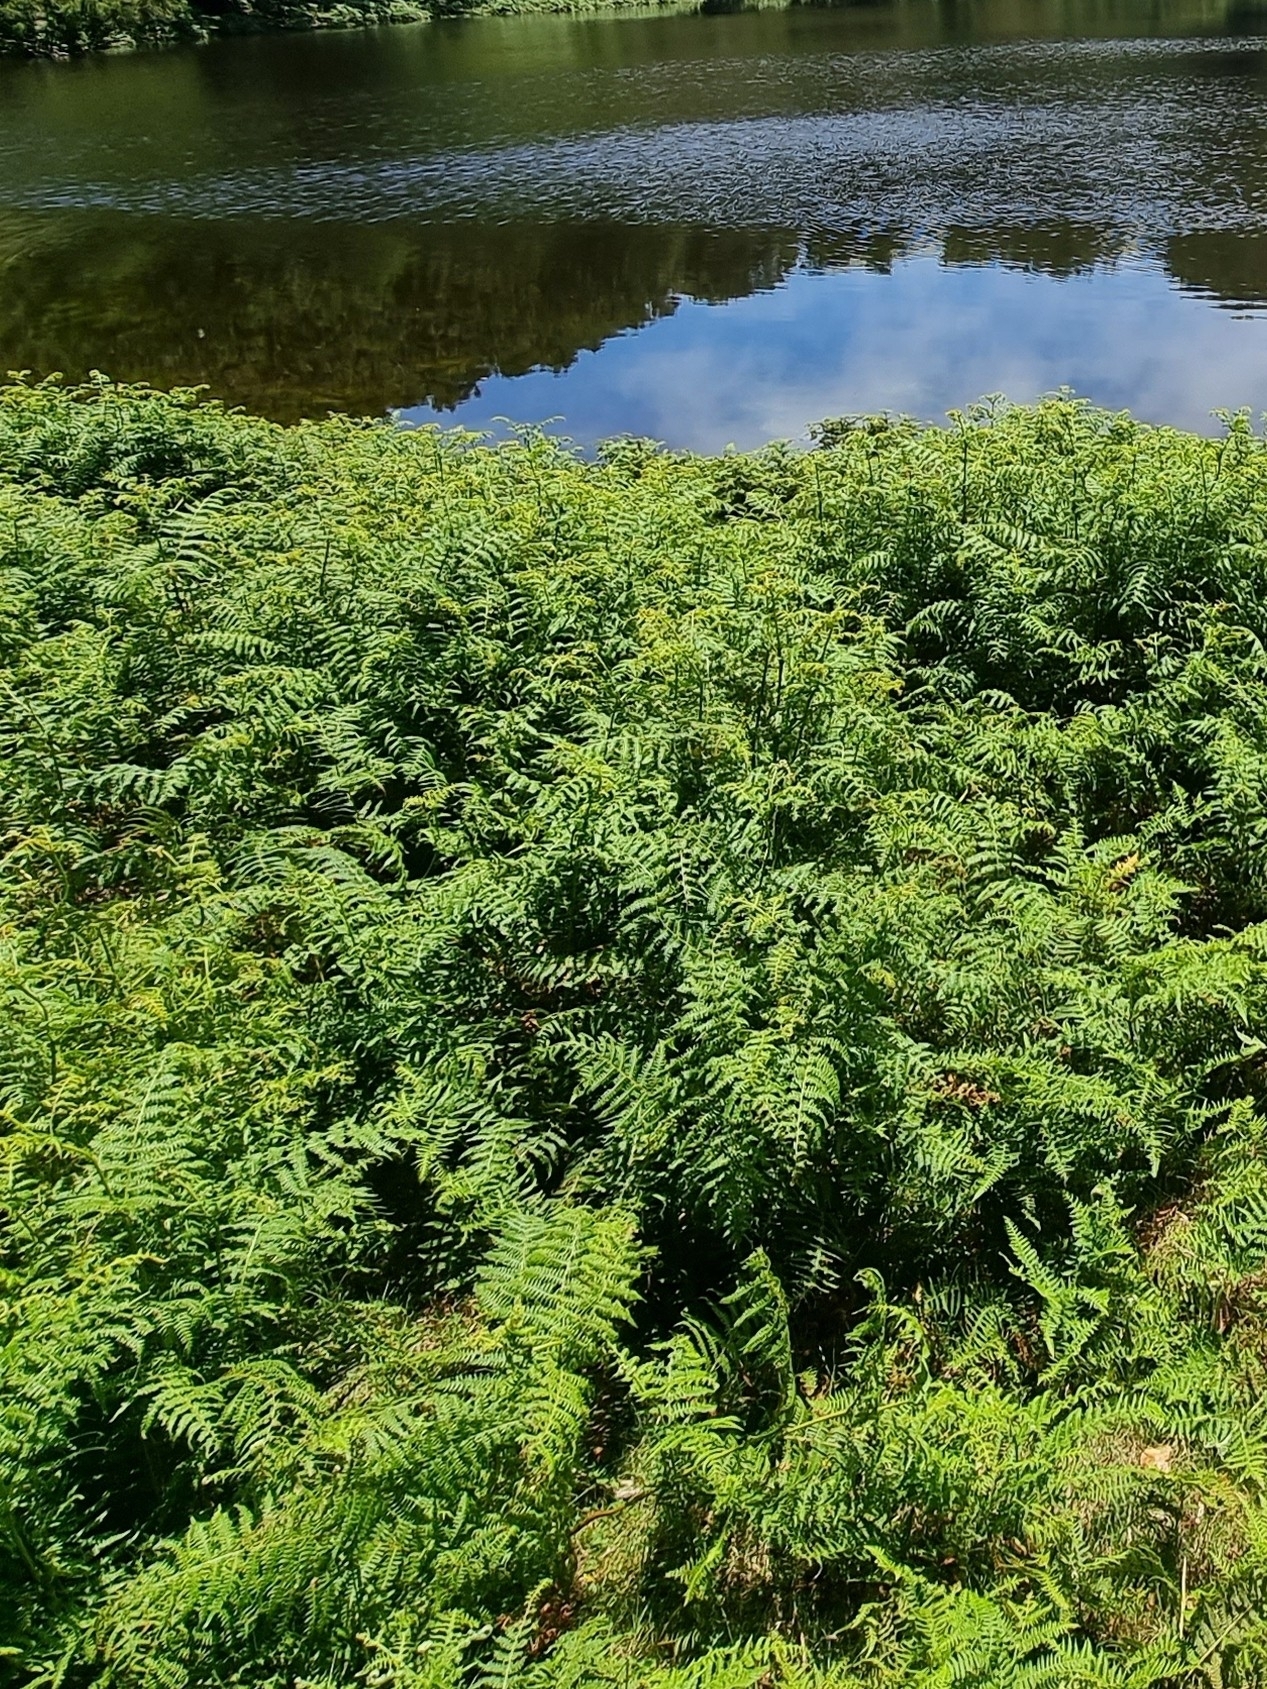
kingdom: Plantae
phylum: Tracheophyta
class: Polypodiopsida
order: Polypodiales
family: Dennstaedtiaceae
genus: Pteridium
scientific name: Pteridium aquilinum
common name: Bracken
